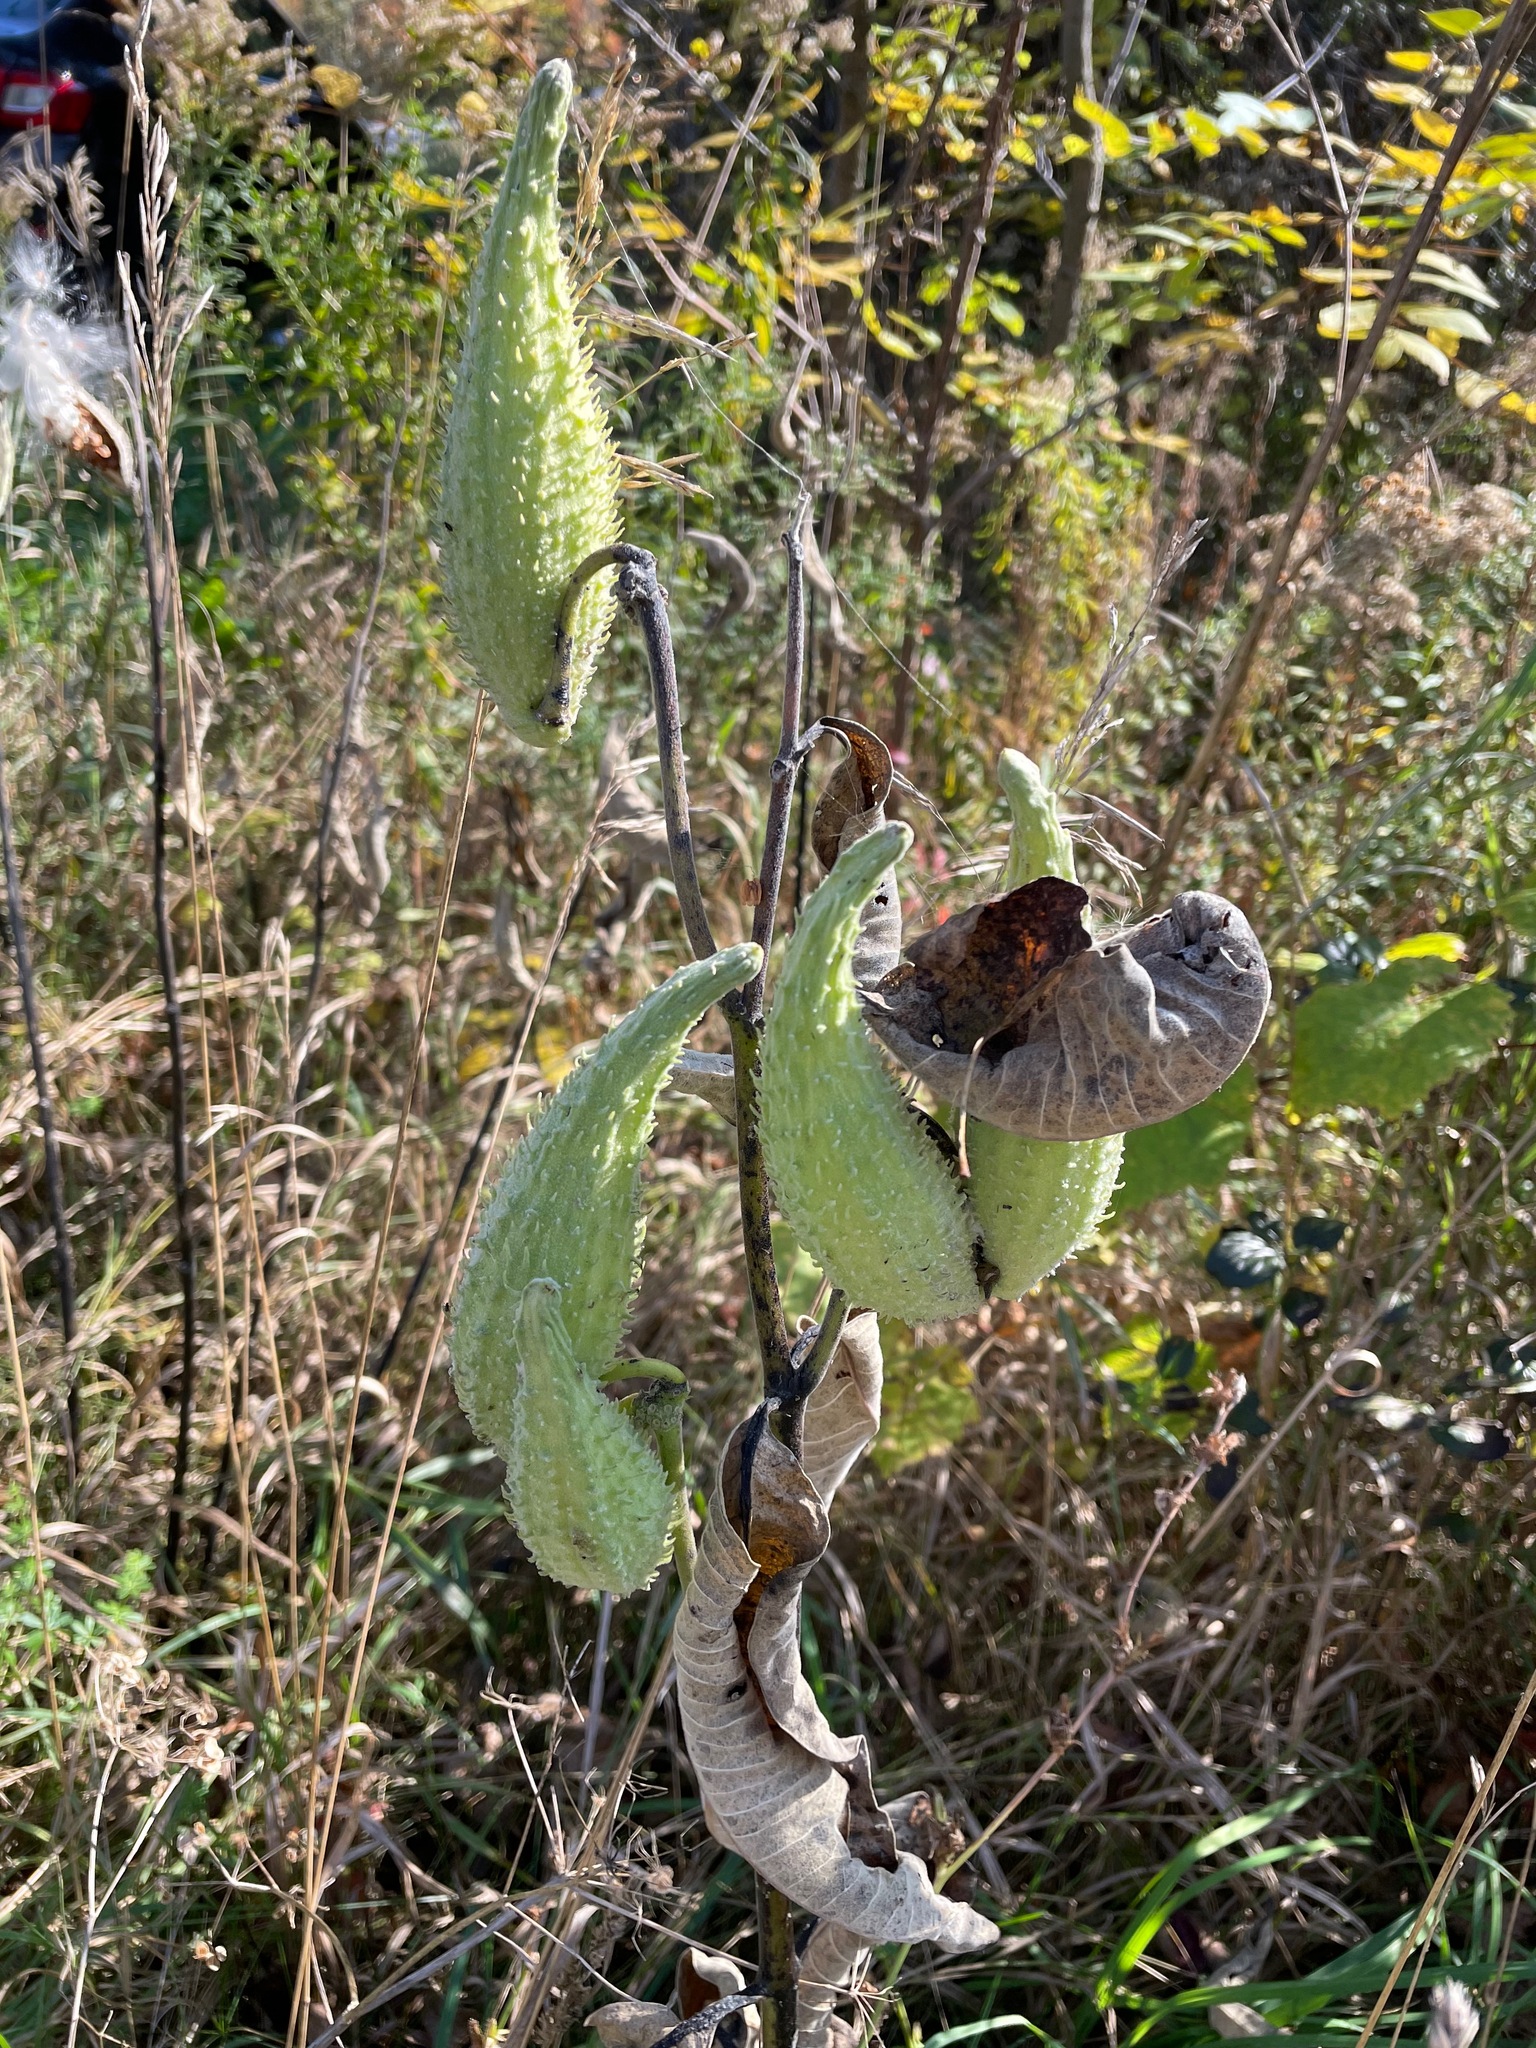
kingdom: Plantae
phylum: Tracheophyta
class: Magnoliopsida
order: Gentianales
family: Apocynaceae
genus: Asclepias
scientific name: Asclepias syriaca
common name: Common milkweed
